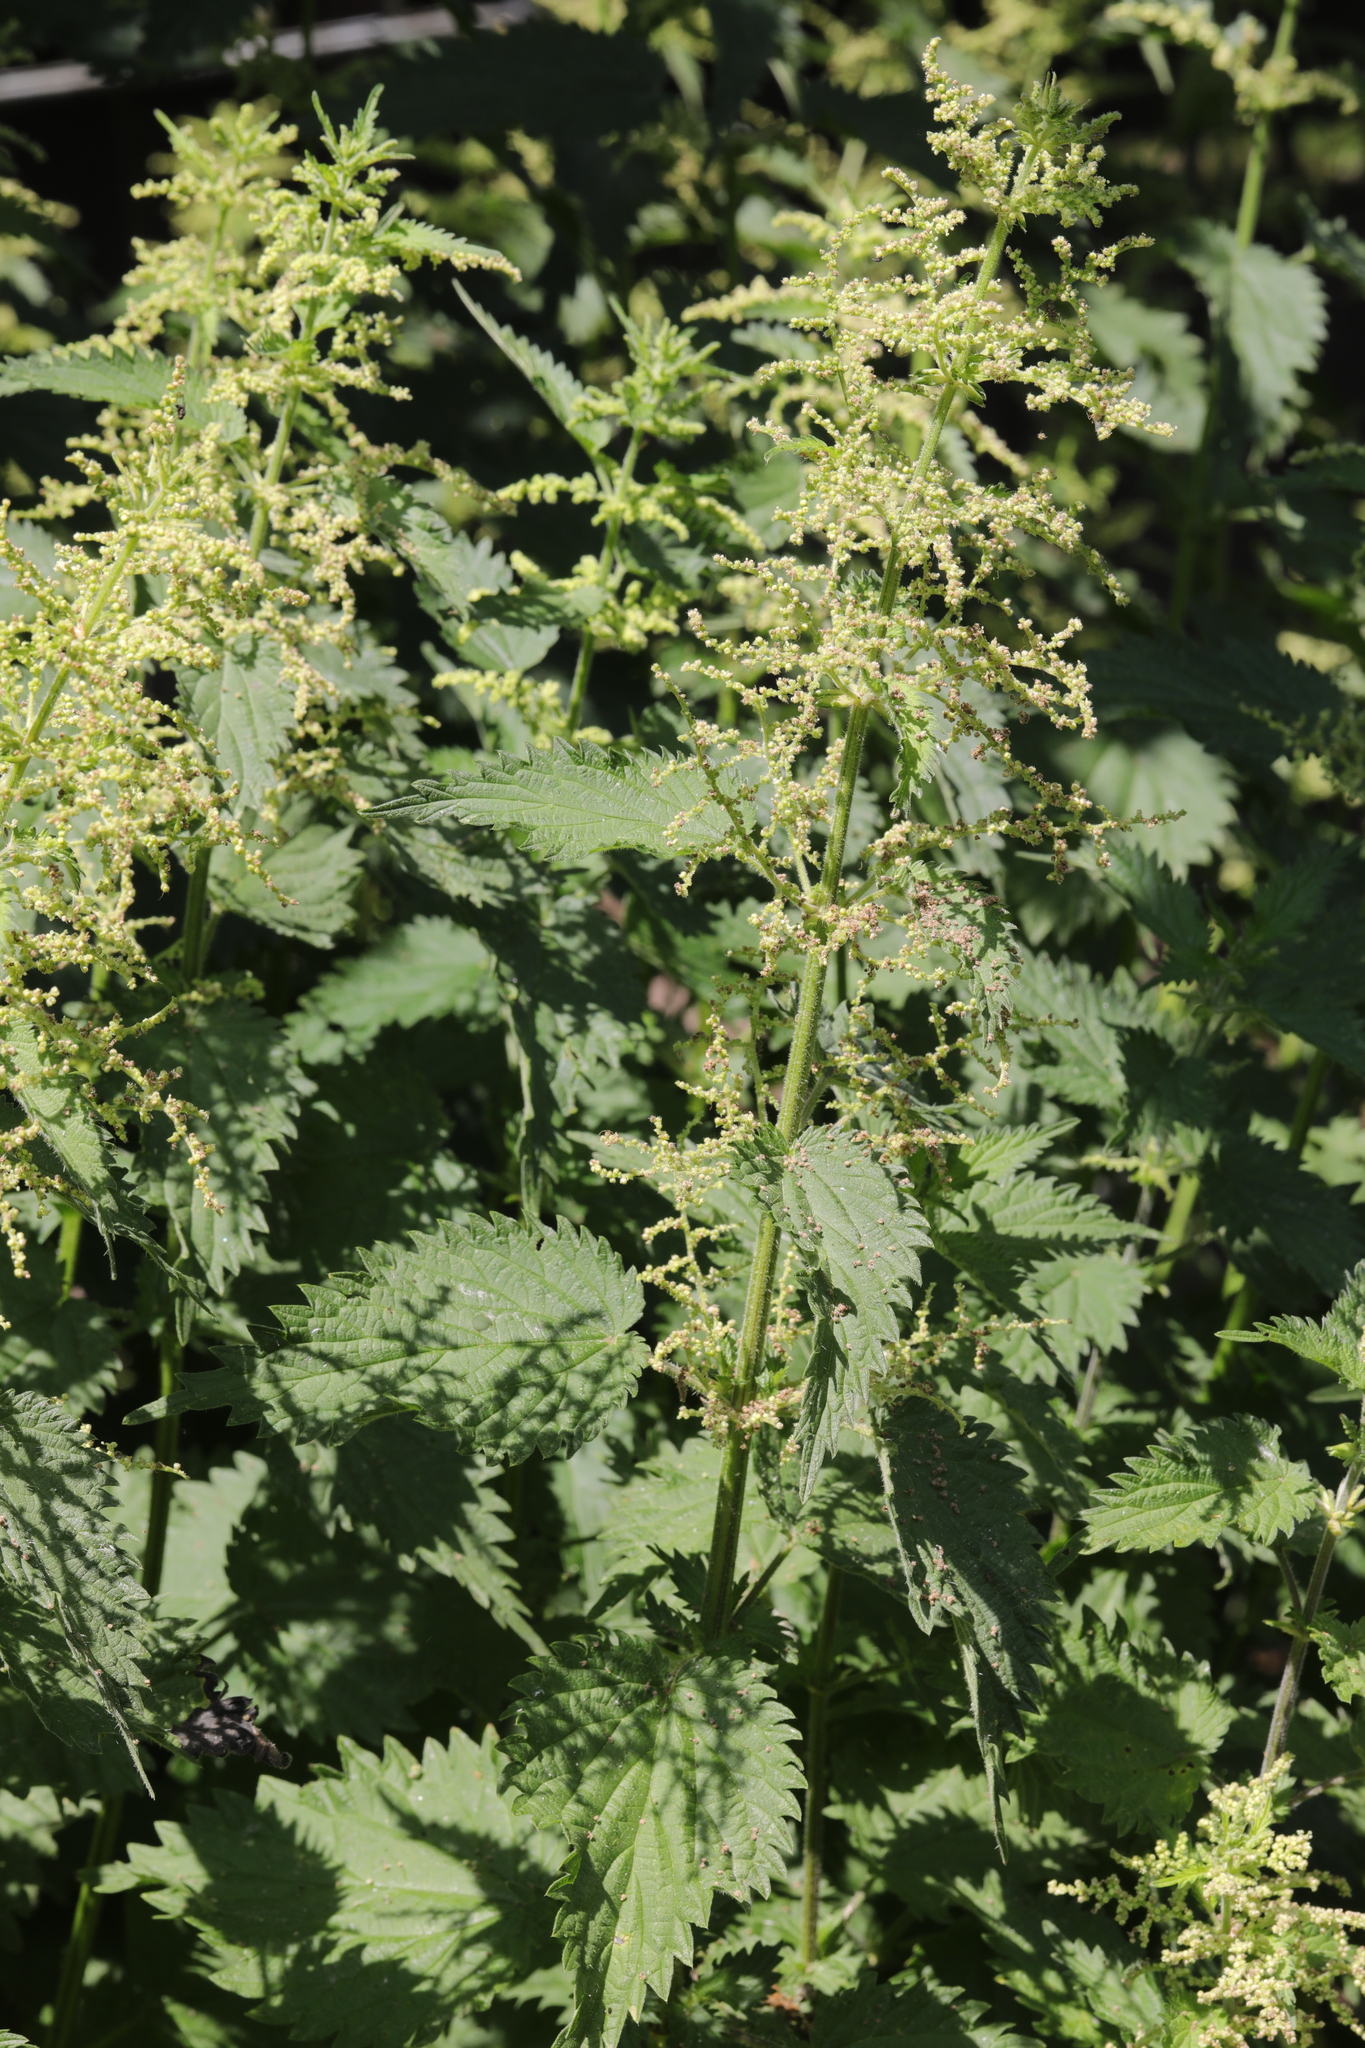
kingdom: Plantae
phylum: Tracheophyta
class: Magnoliopsida
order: Rosales
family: Urticaceae
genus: Urtica
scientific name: Urtica dioica
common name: Common nettle
